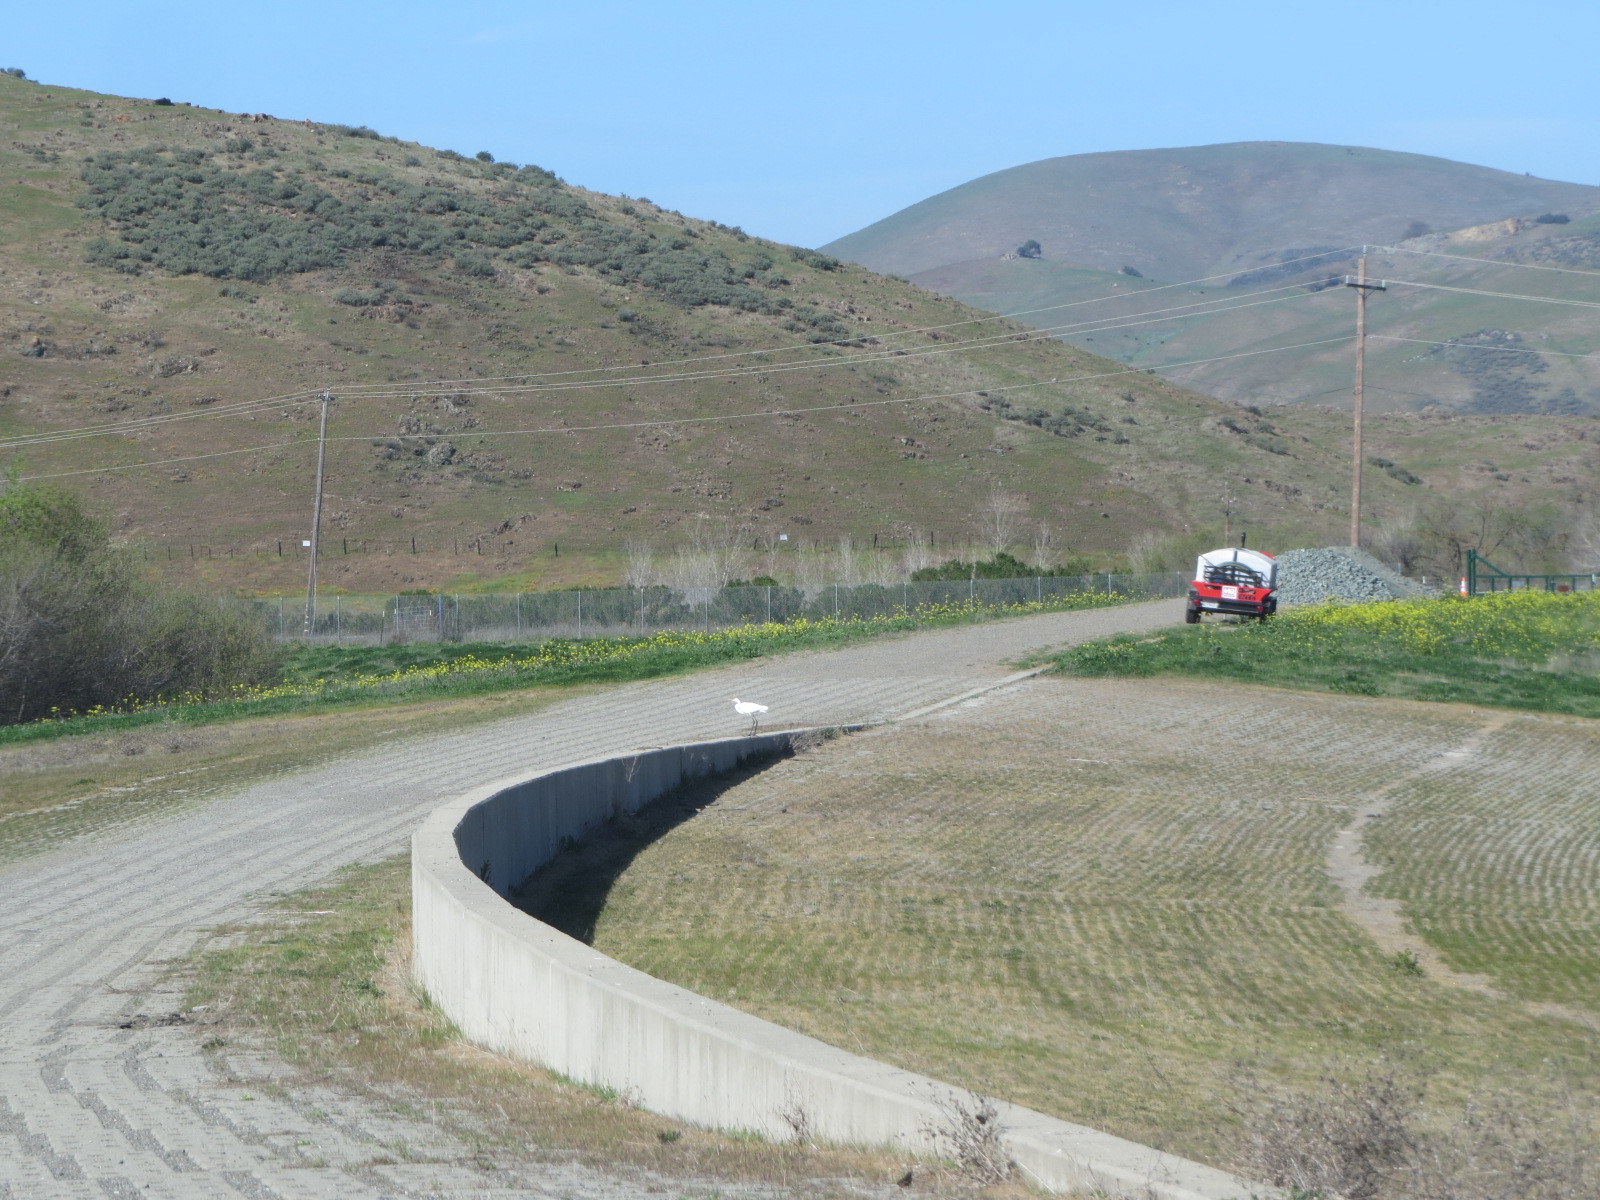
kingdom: Animalia
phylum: Chordata
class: Aves
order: Pelecaniformes
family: Ardeidae
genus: Ardea
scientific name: Ardea alba
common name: Great egret
